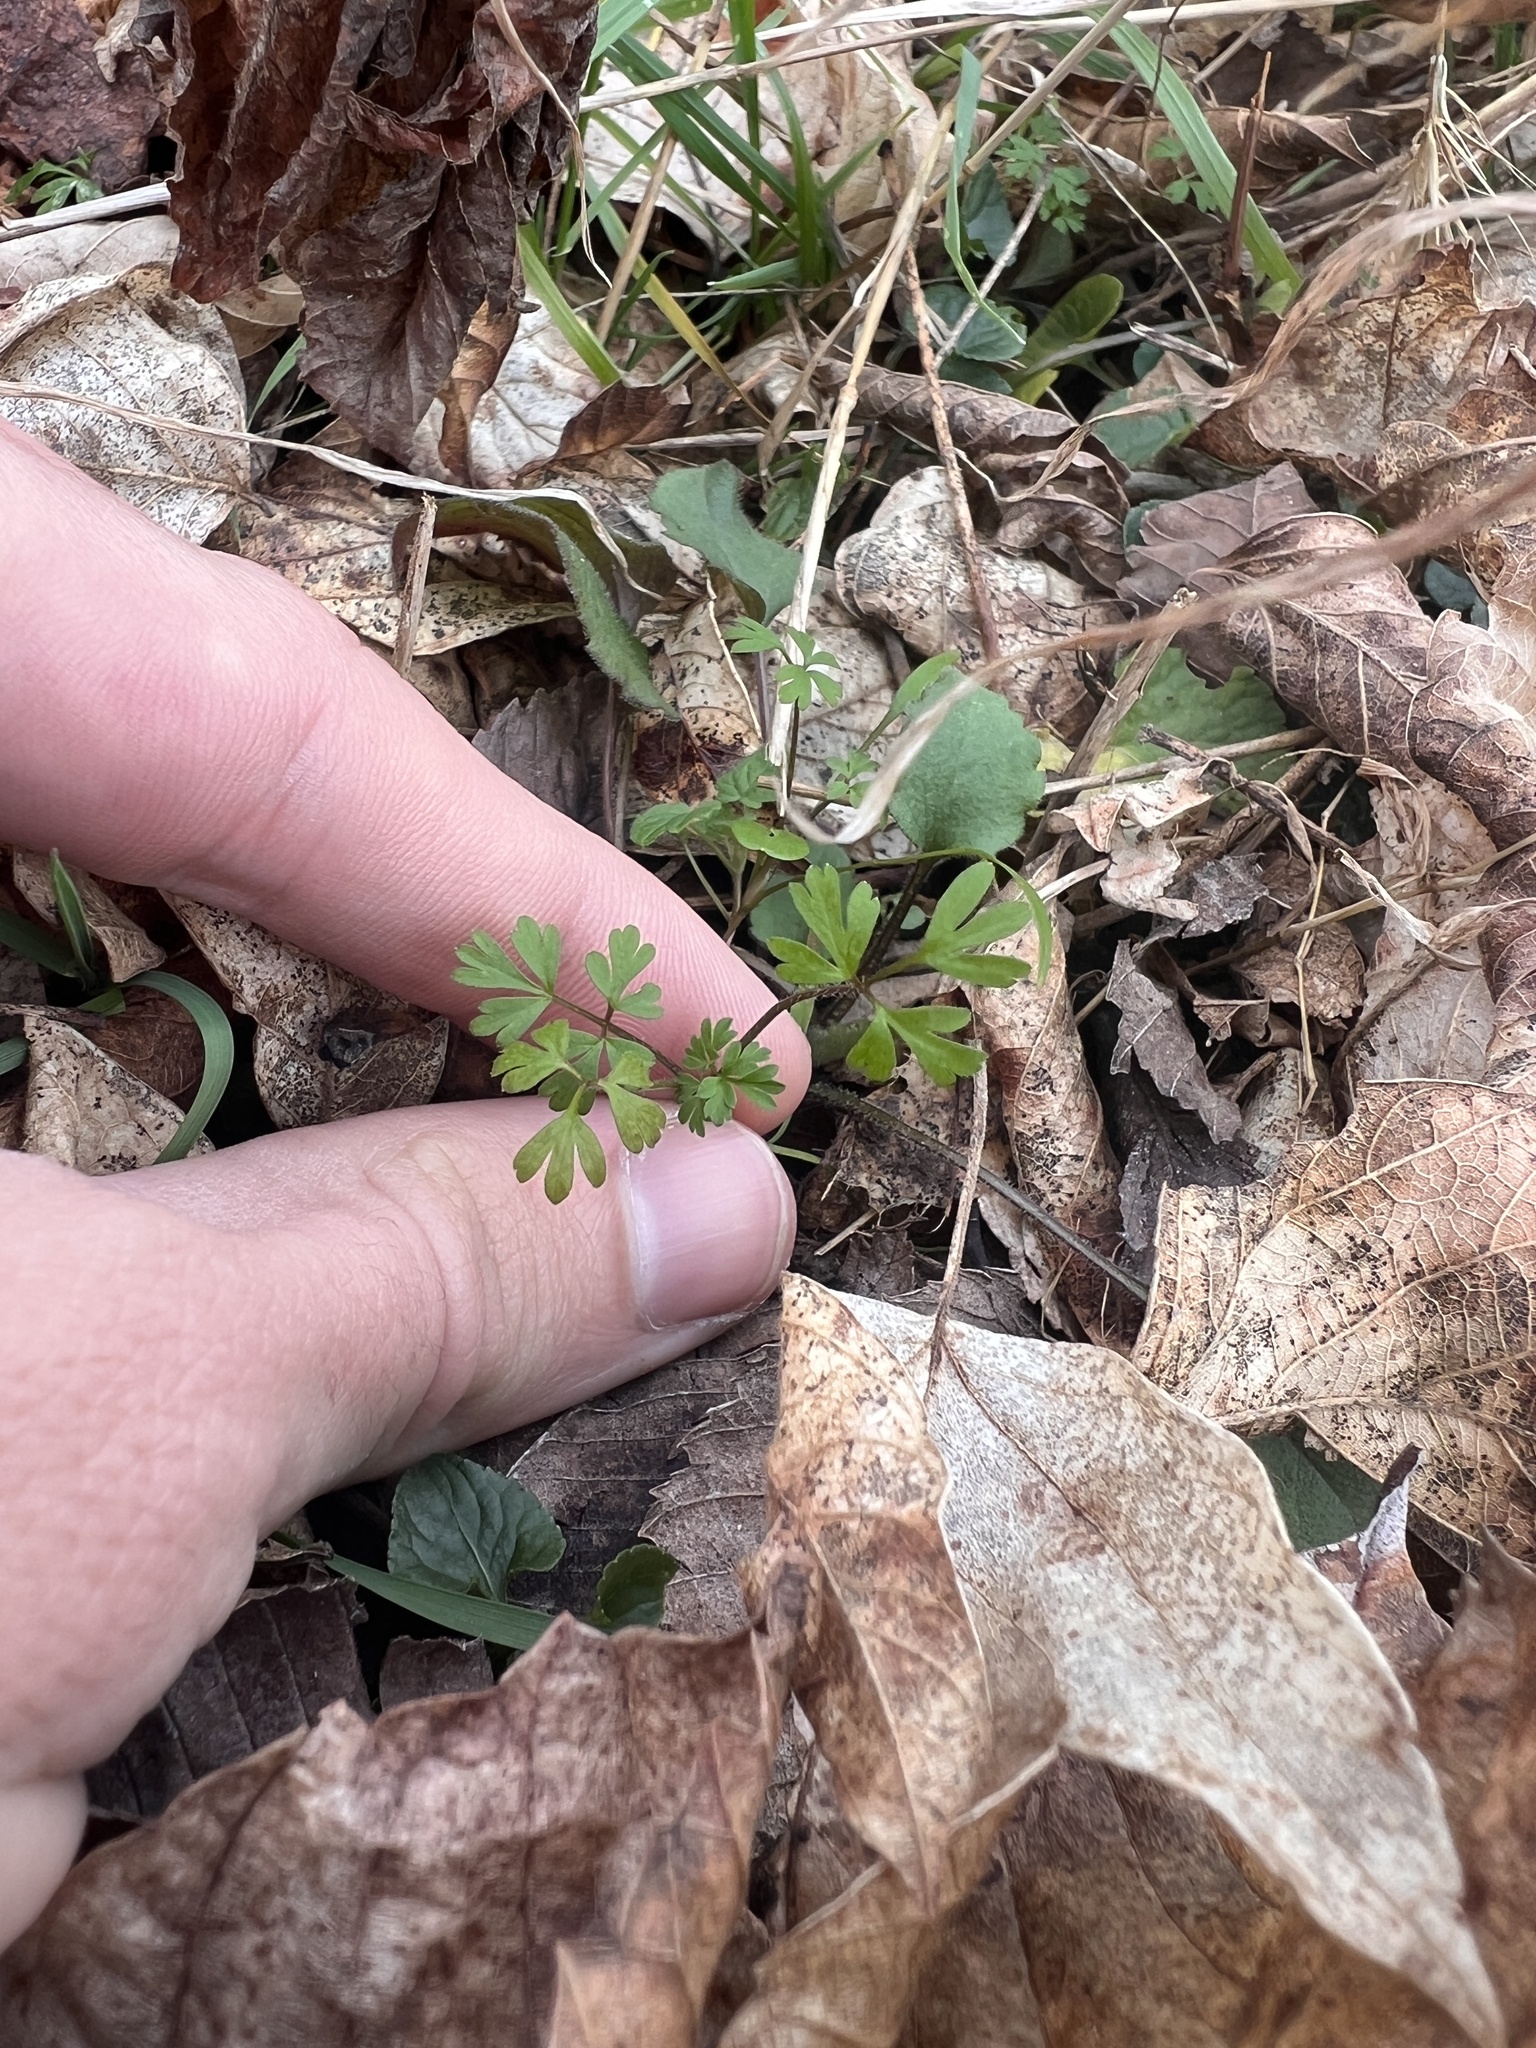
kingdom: Plantae
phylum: Tracheophyta
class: Magnoliopsida
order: Apiales
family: Apiaceae
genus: Erigenia
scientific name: Erigenia bulbosa
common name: Pepper-and-salt
